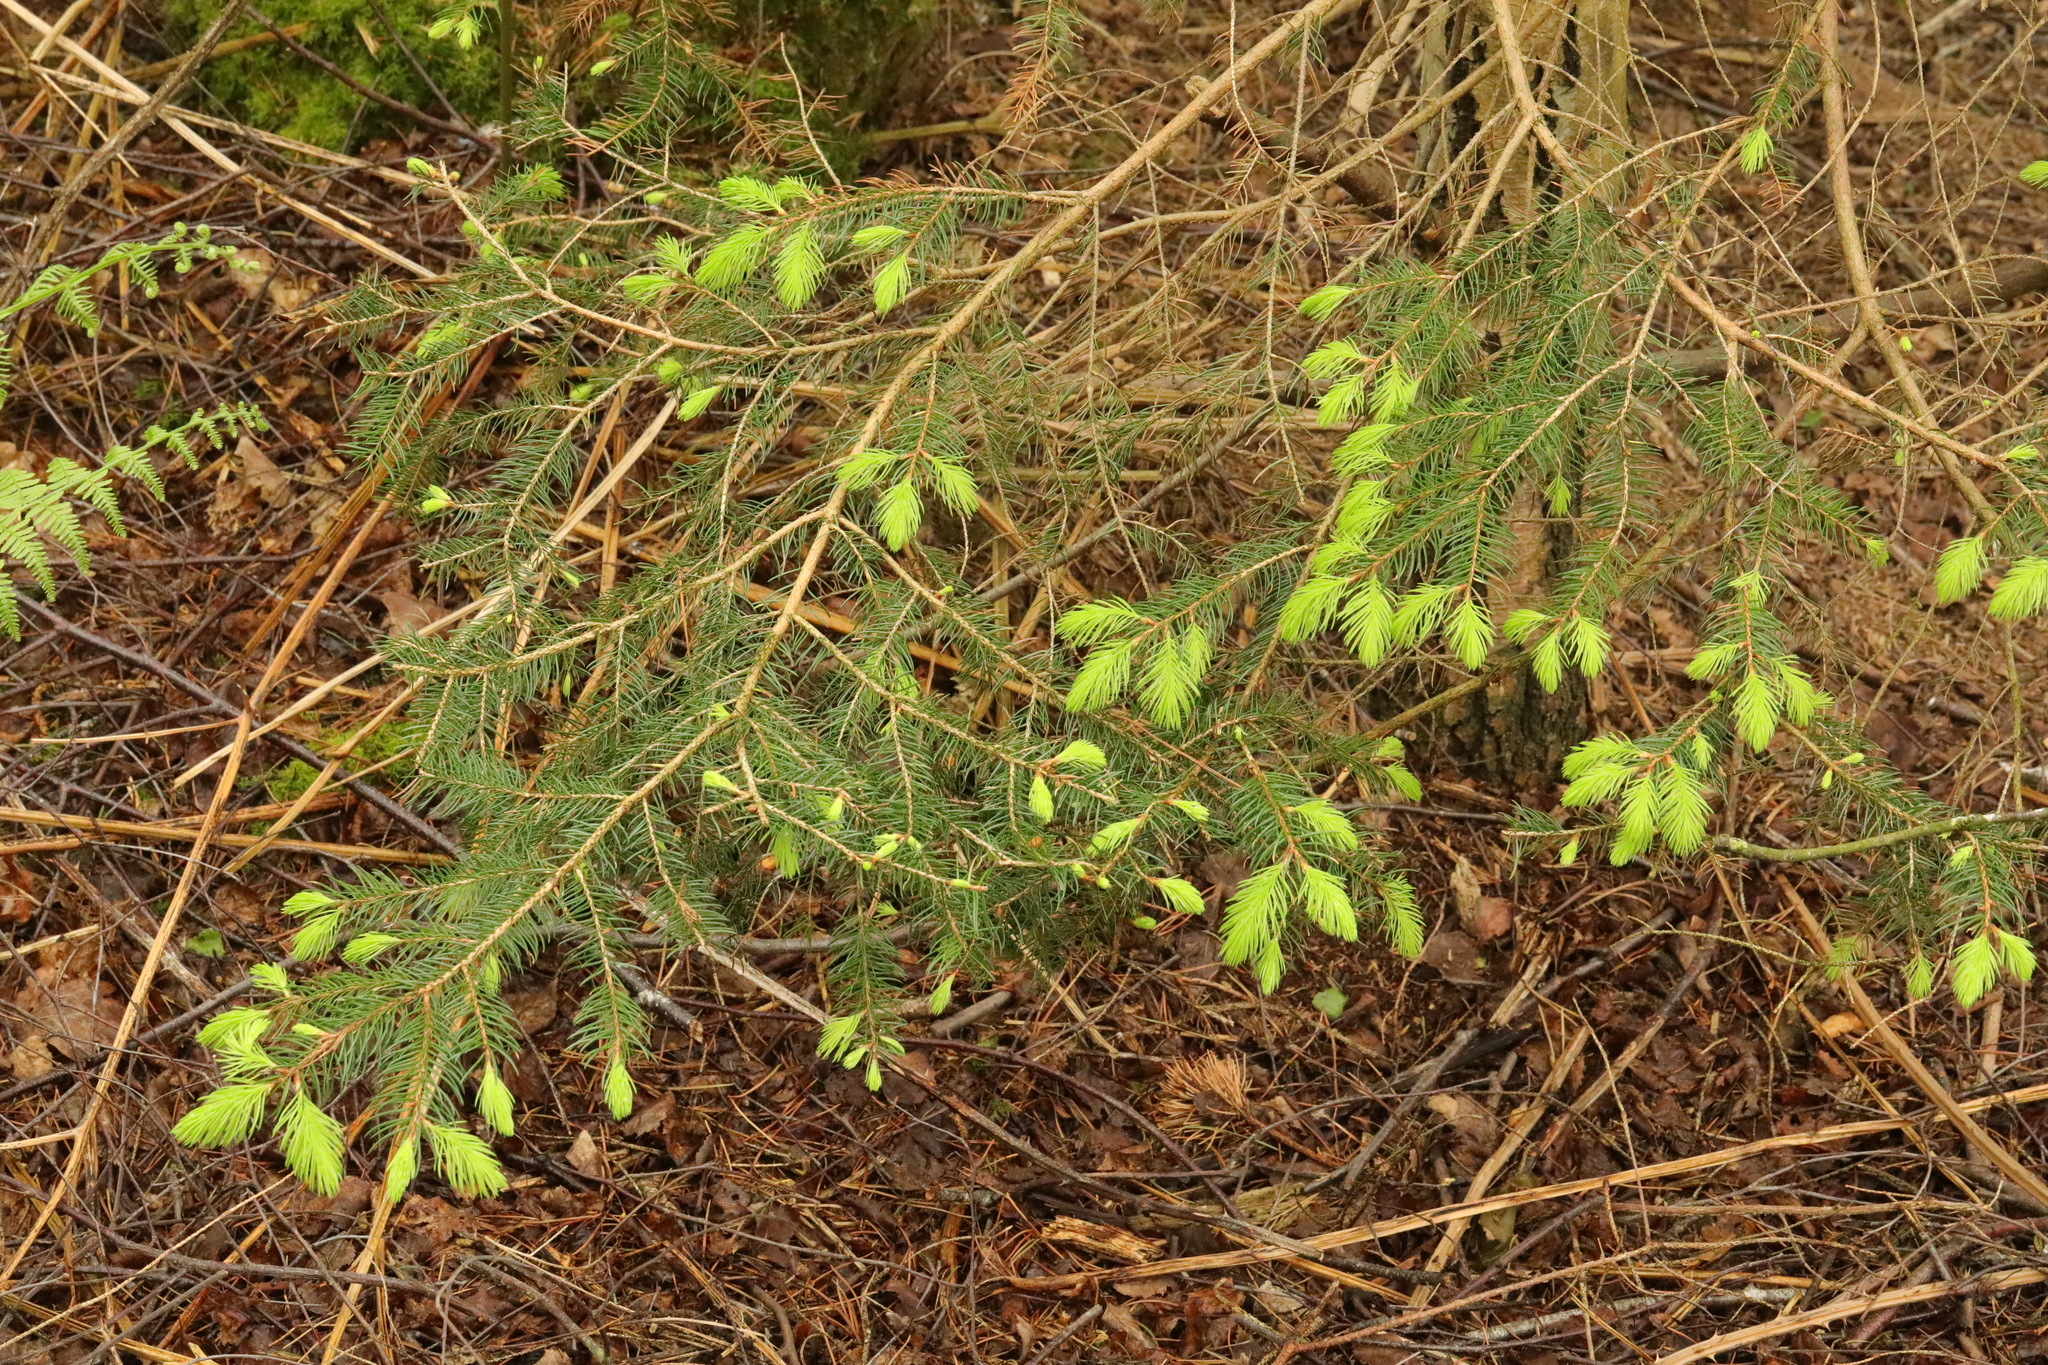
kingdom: Plantae
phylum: Tracheophyta
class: Pinopsida
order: Pinales
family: Pinaceae
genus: Picea
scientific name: Picea abies
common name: Norway spruce
